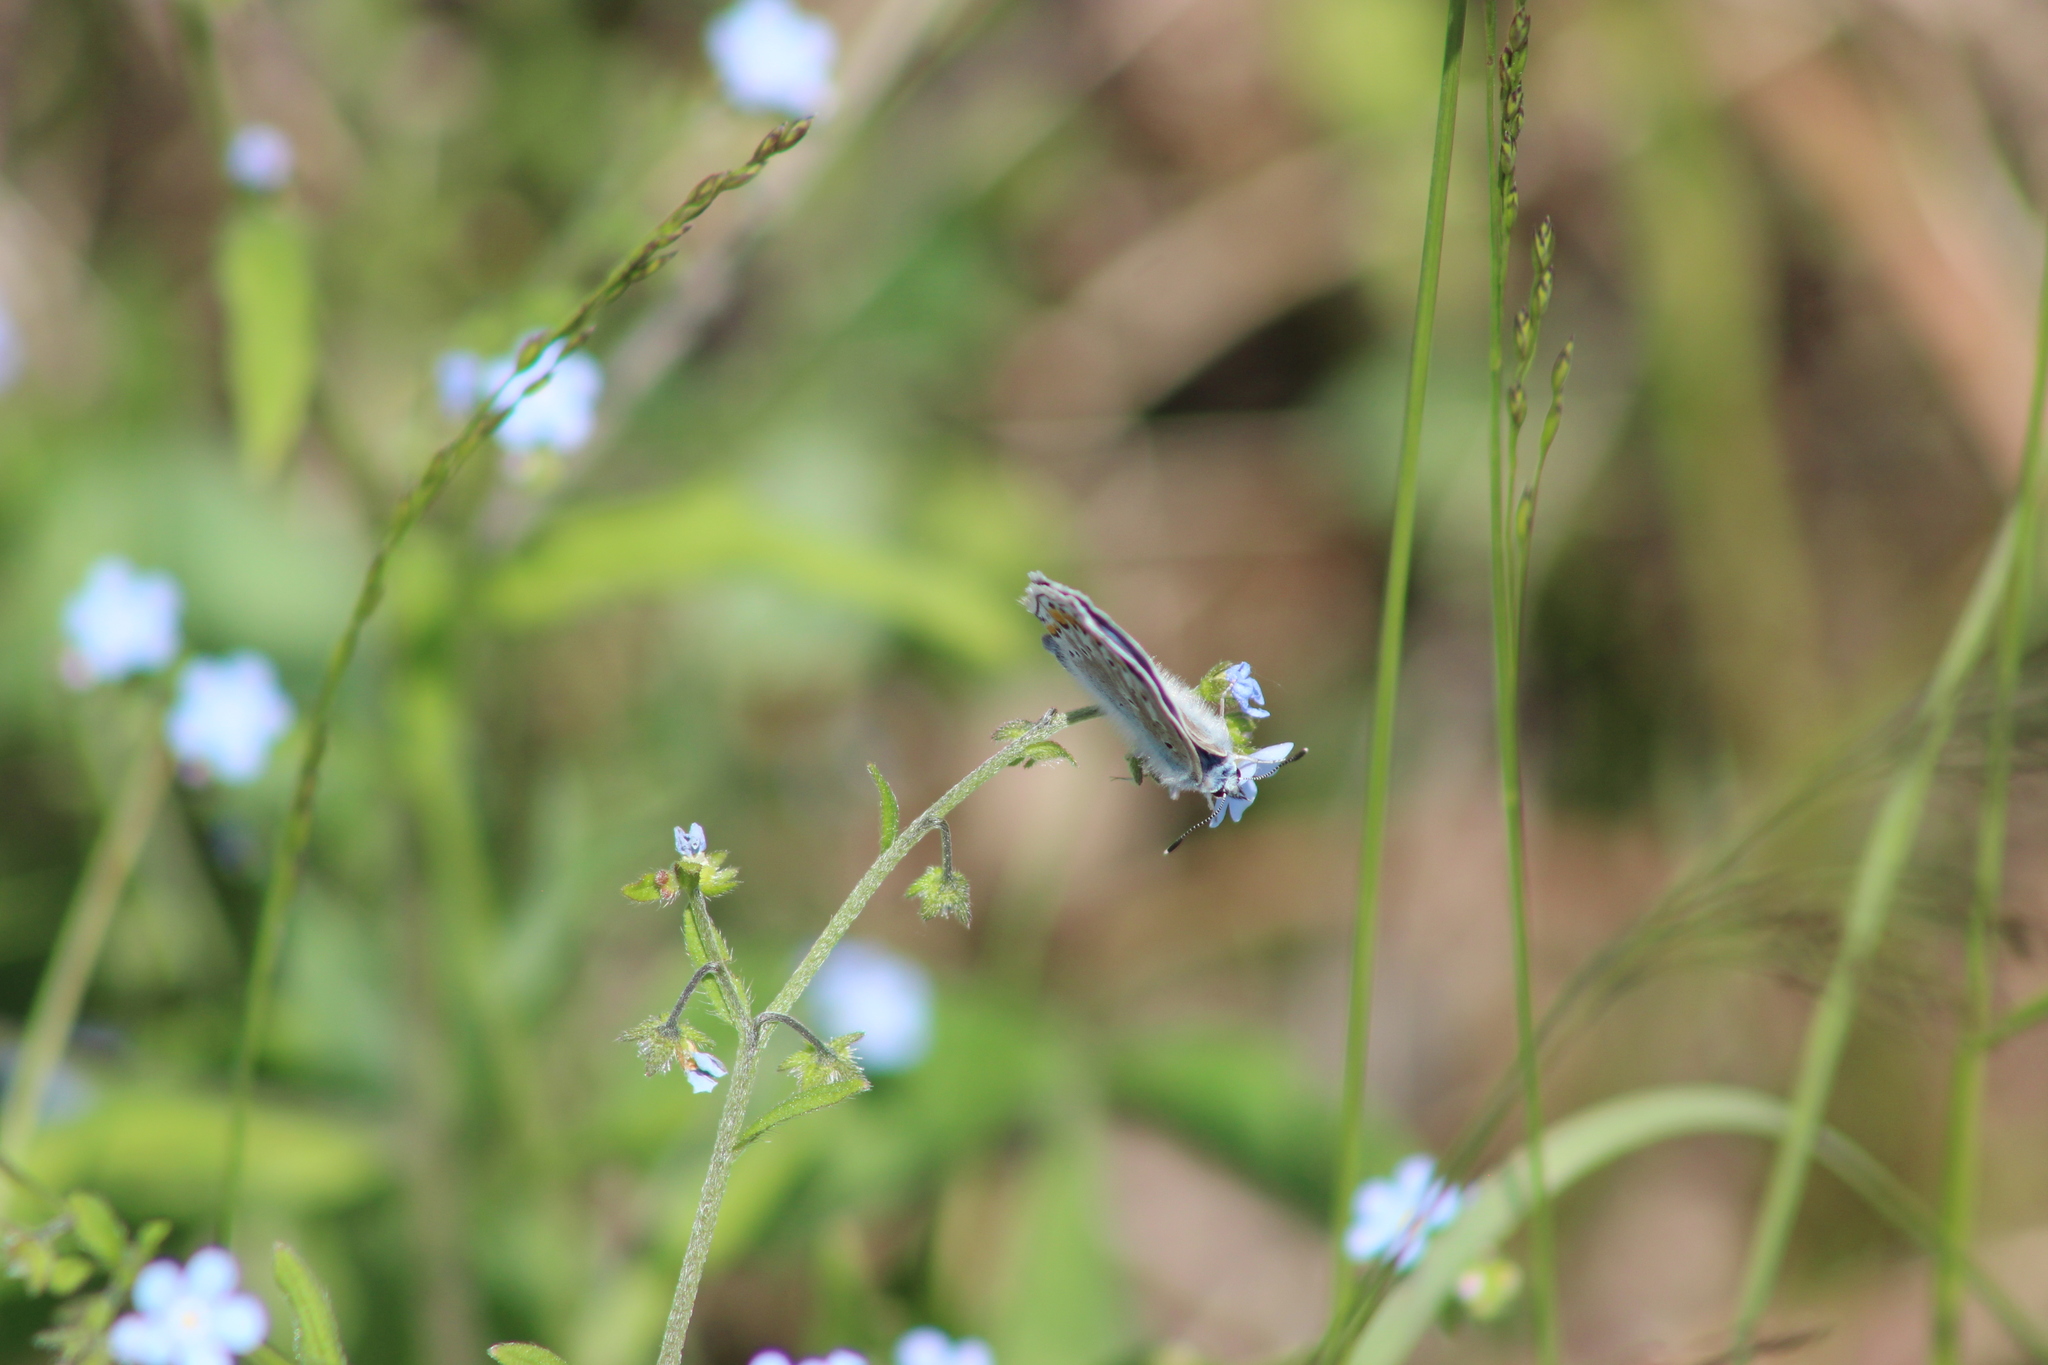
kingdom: Animalia
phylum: Arthropoda
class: Insecta
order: Lepidoptera
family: Lycaenidae
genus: Polyommatus
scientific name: Polyommatus icarus
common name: Common blue
